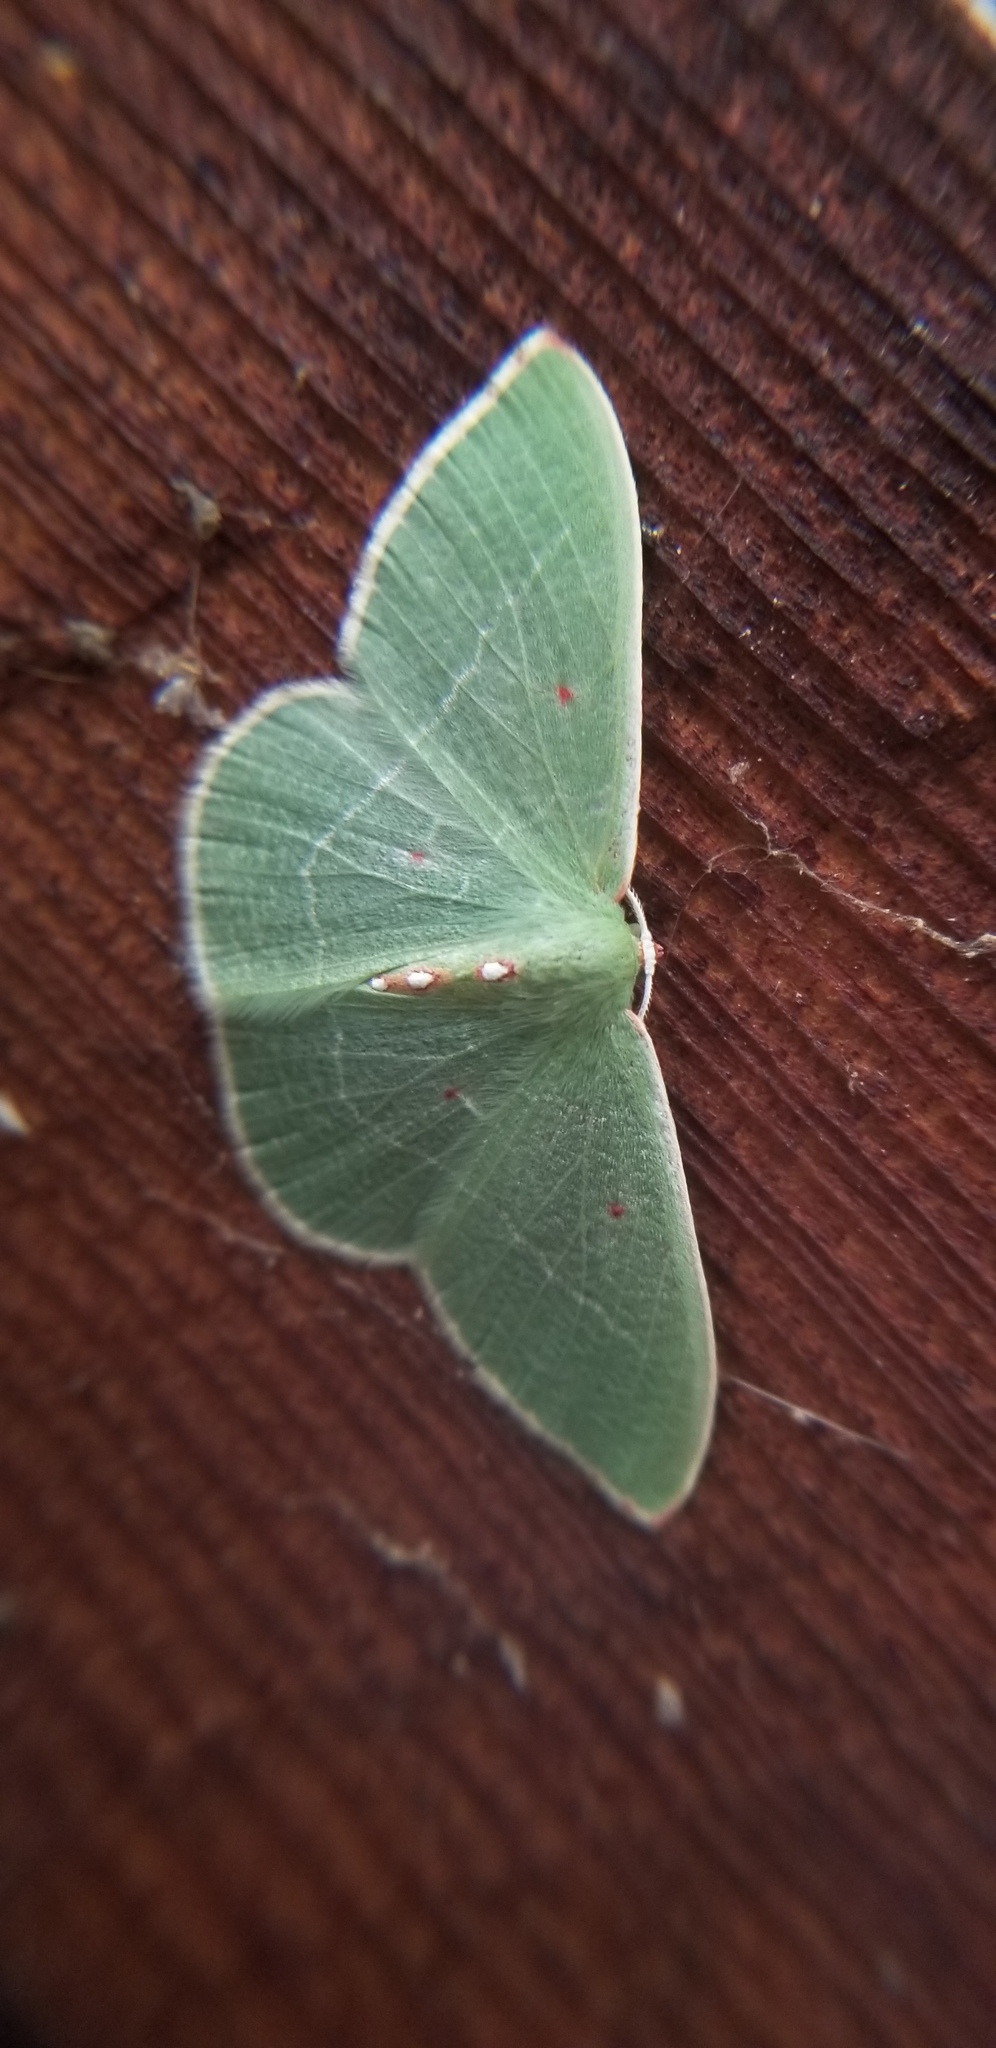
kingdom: Animalia
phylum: Arthropoda
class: Insecta
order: Lepidoptera
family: Geometridae
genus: Nemoria
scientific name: Nemoria darwiniata
